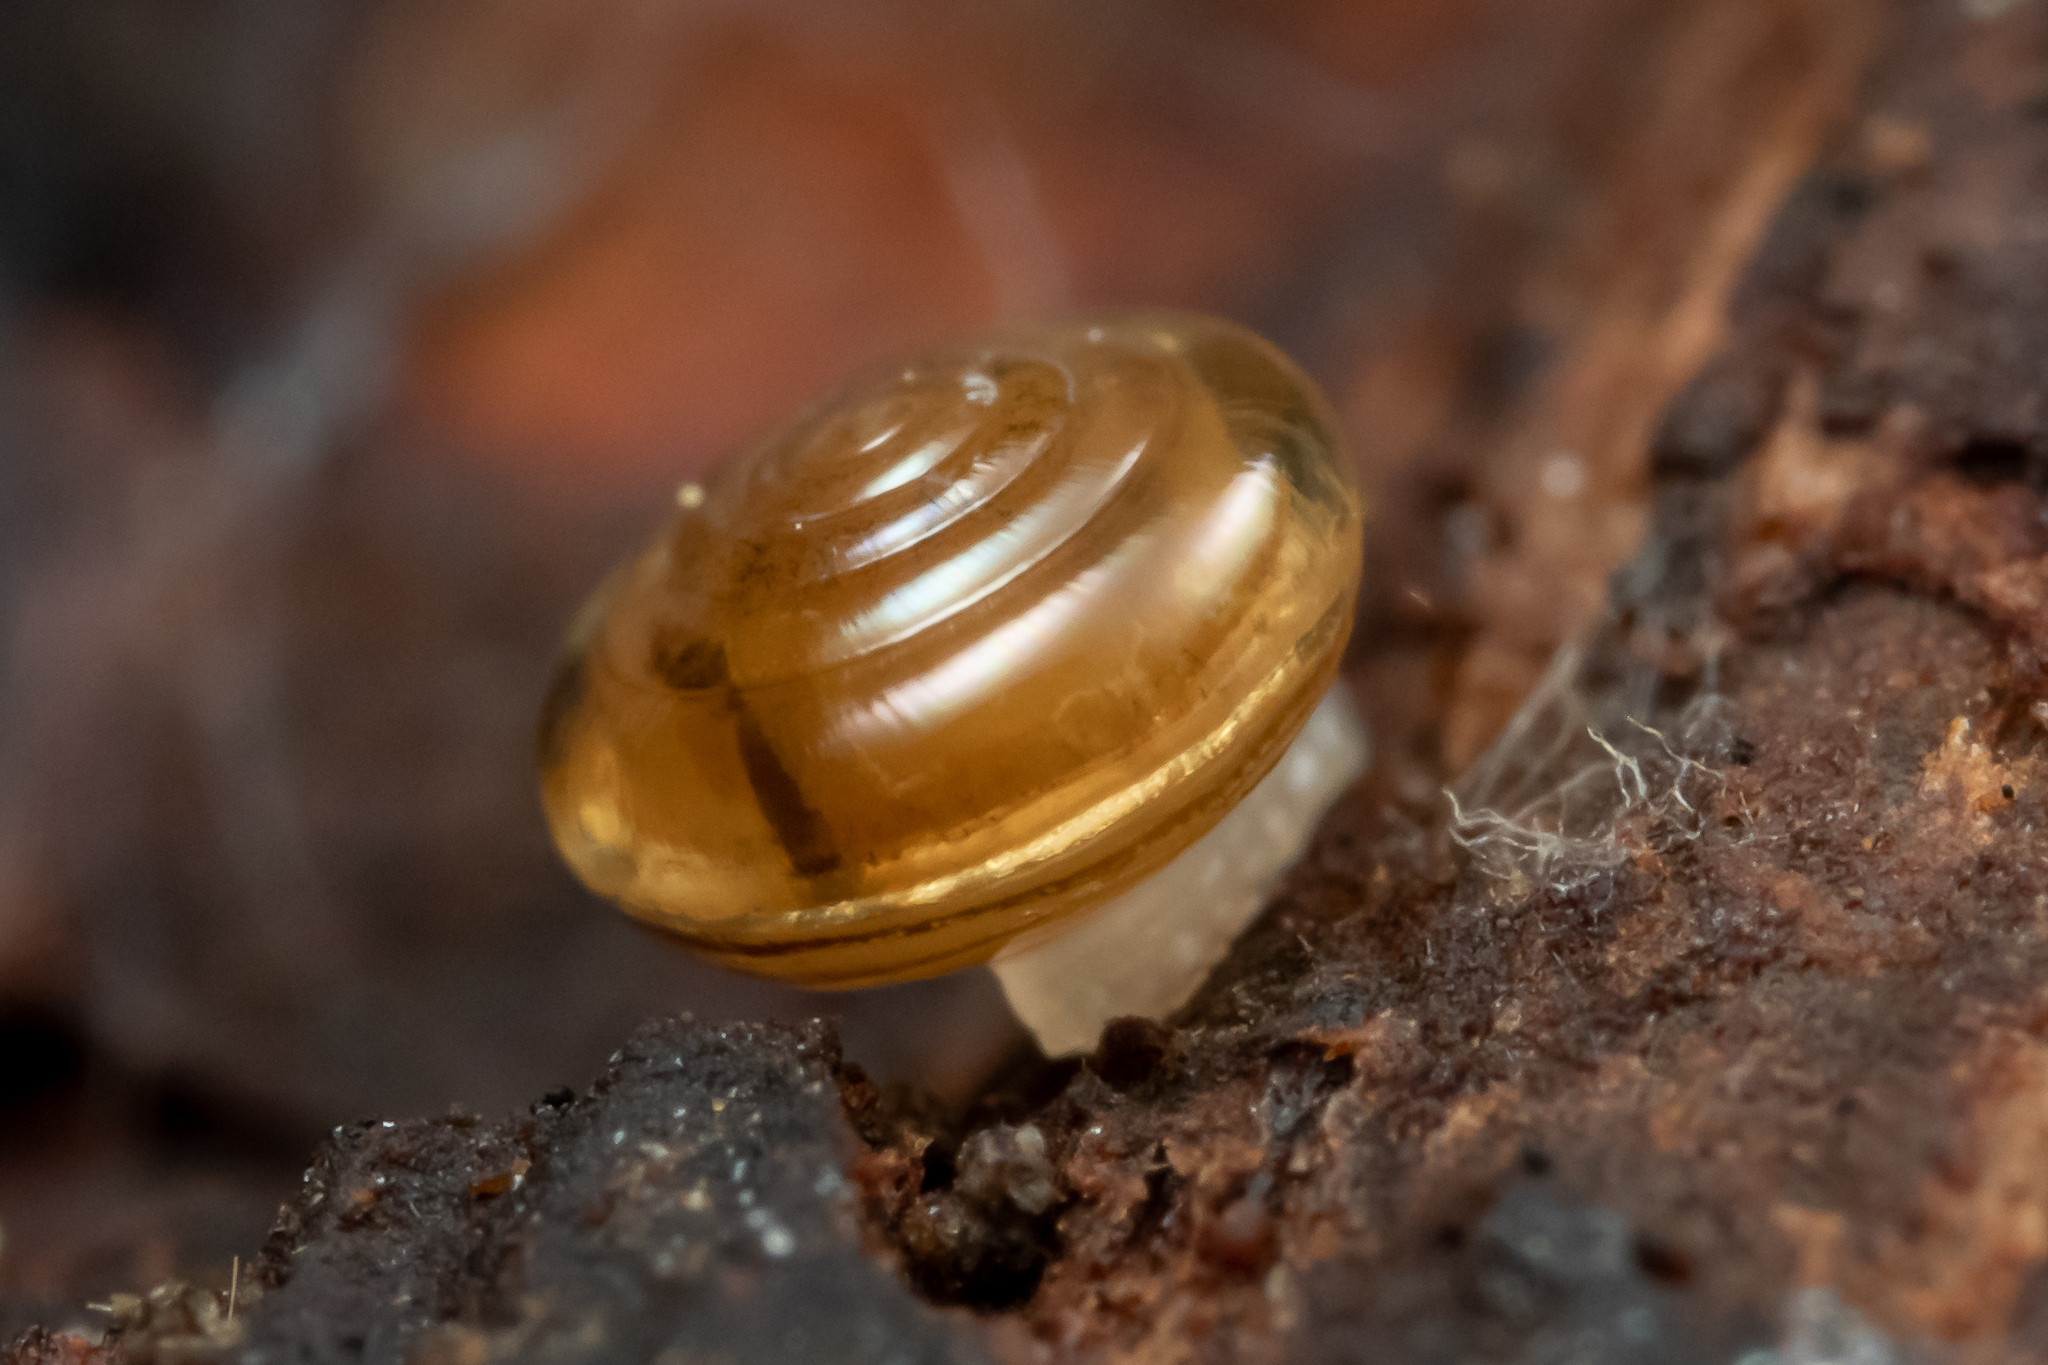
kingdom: Animalia
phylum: Mollusca
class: Gastropoda
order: Stylommatophora
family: Pristilomatidae
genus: Pristiloma
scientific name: Pristiloma lansingi
